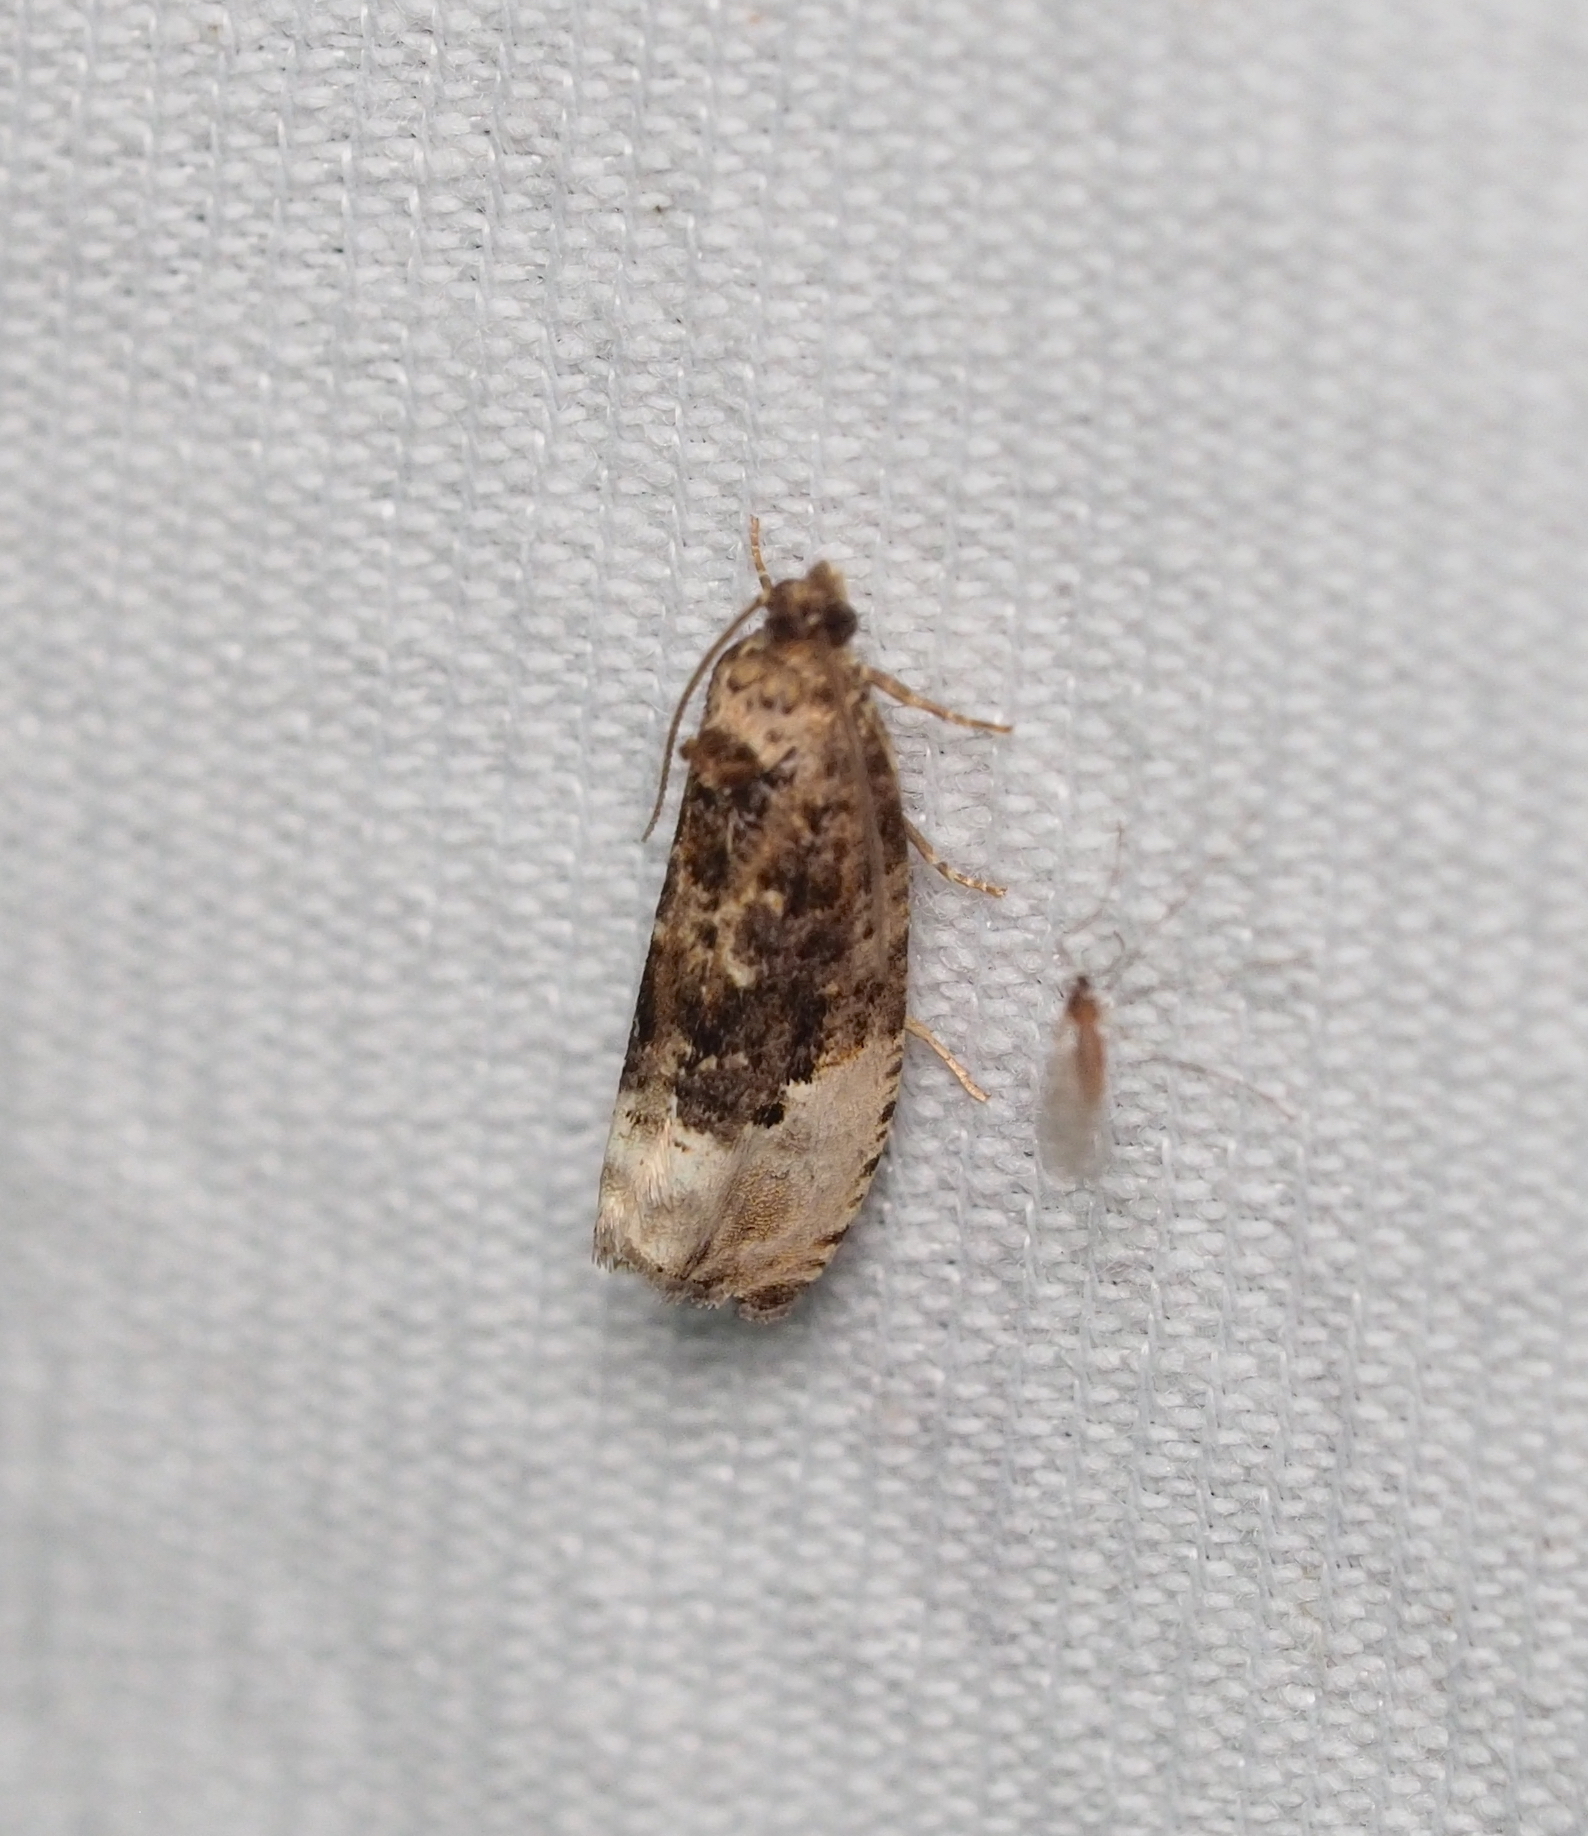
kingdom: Animalia
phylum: Arthropoda
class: Insecta
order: Lepidoptera
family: Tortricidae
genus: Hedya
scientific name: Hedya nubiferana
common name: Marbled orchard tortrix
